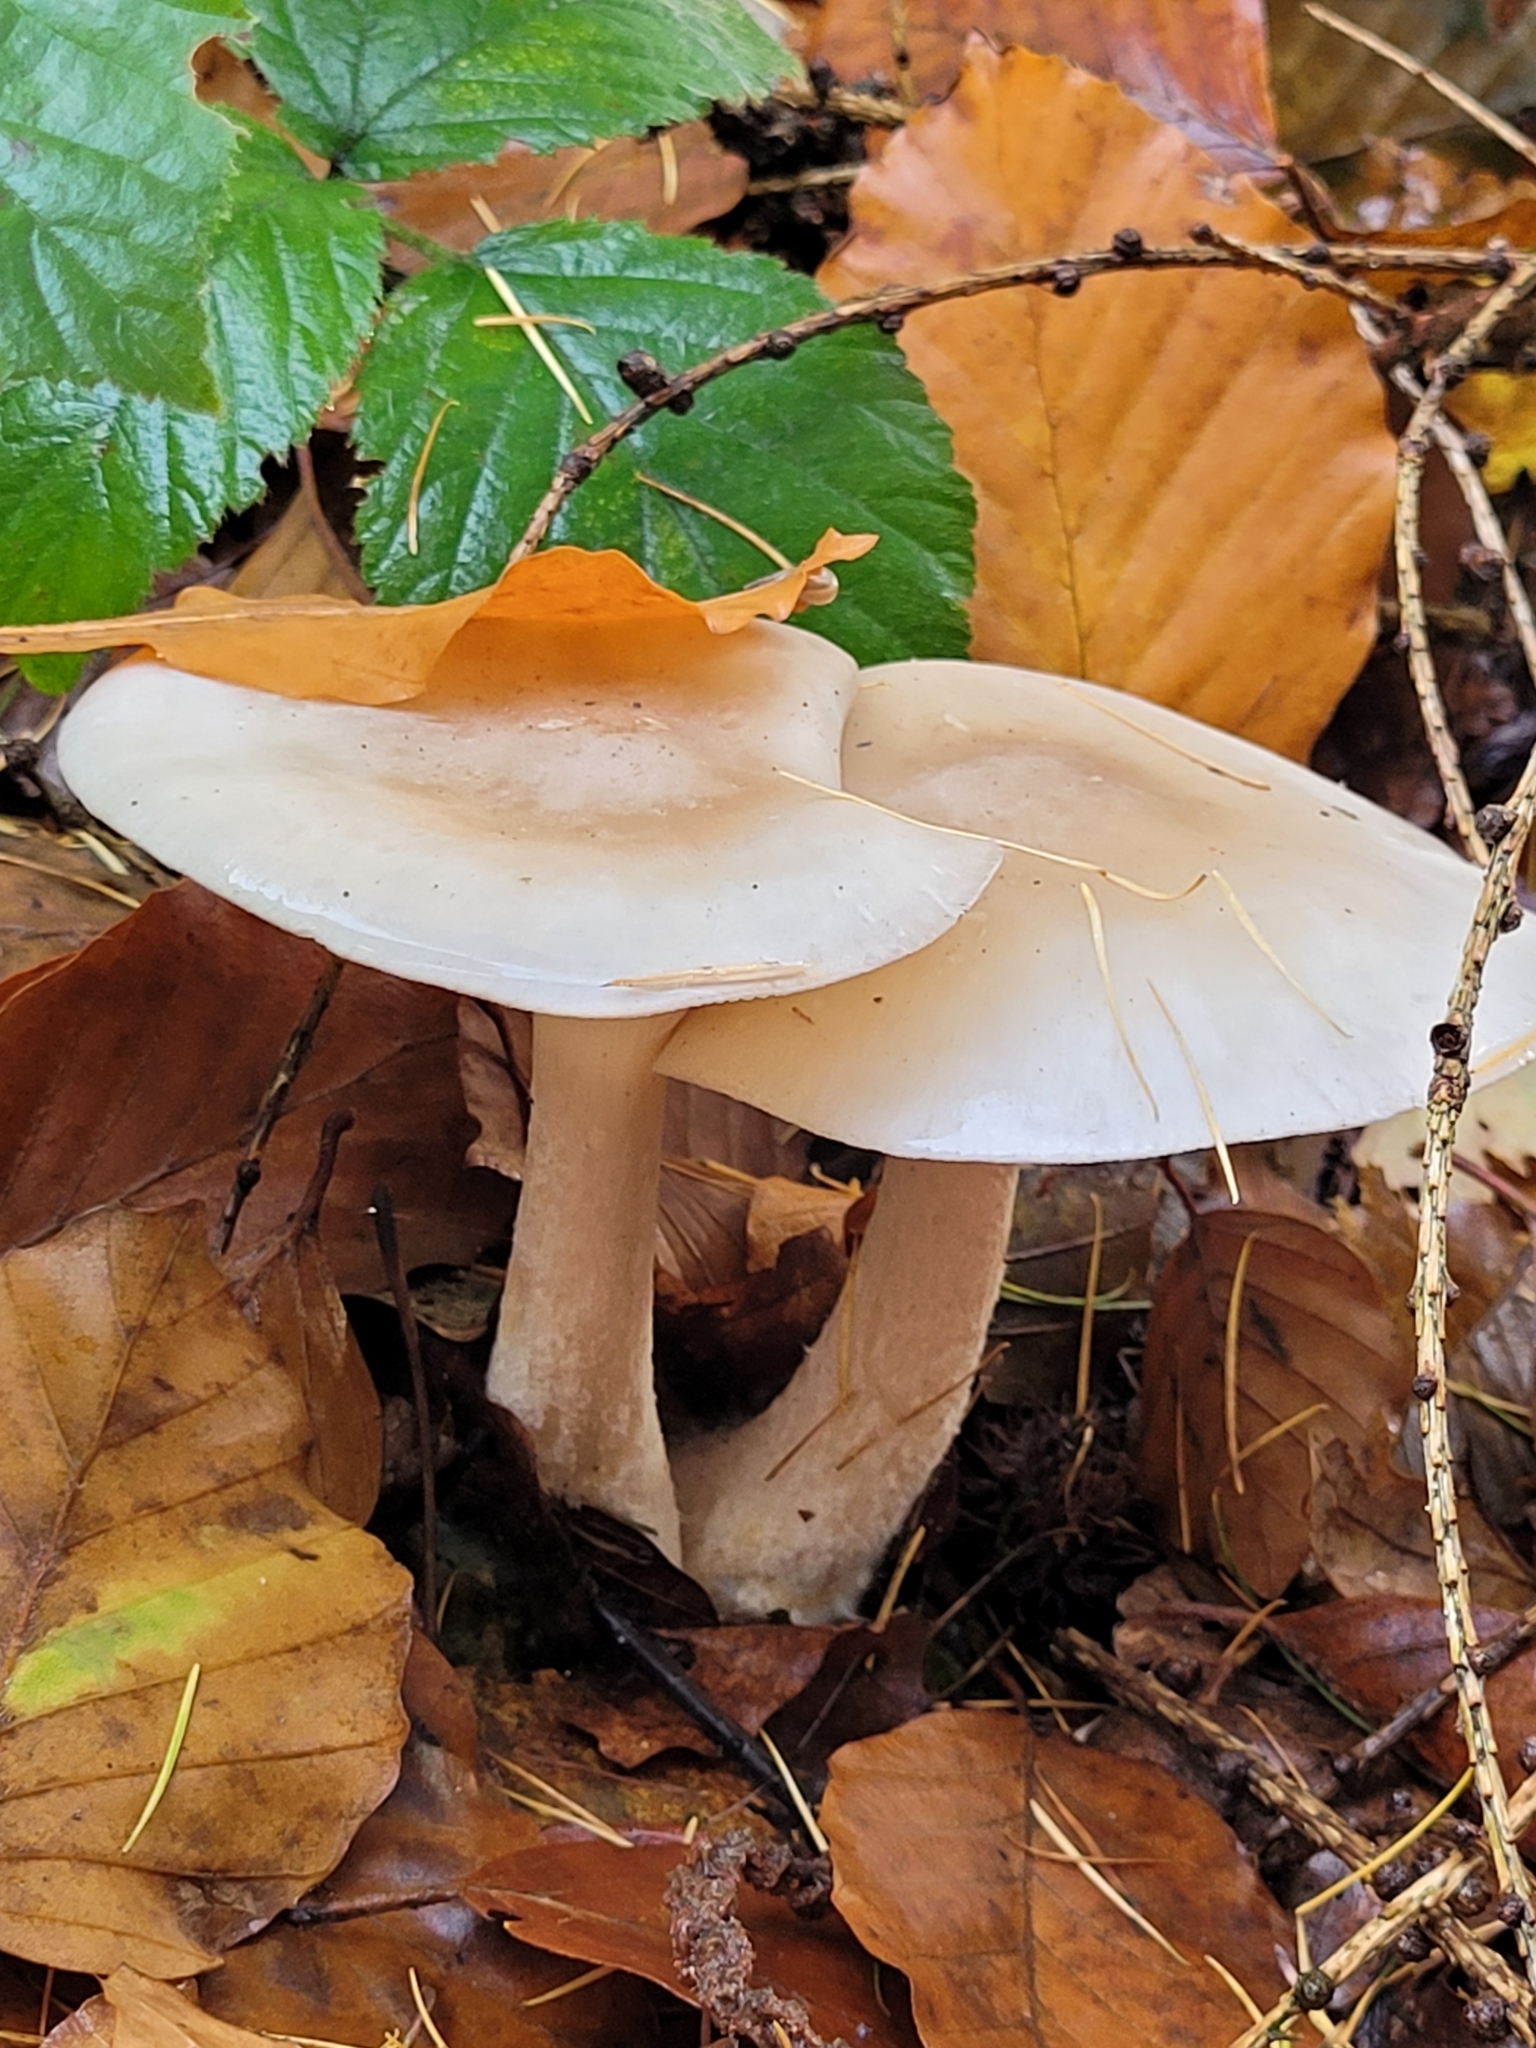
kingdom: Fungi
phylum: Basidiomycota
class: Agaricomycetes
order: Agaricales
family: Tricholomataceae
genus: Clitocybe
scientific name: Clitocybe nebularis
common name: Clouded agaric
